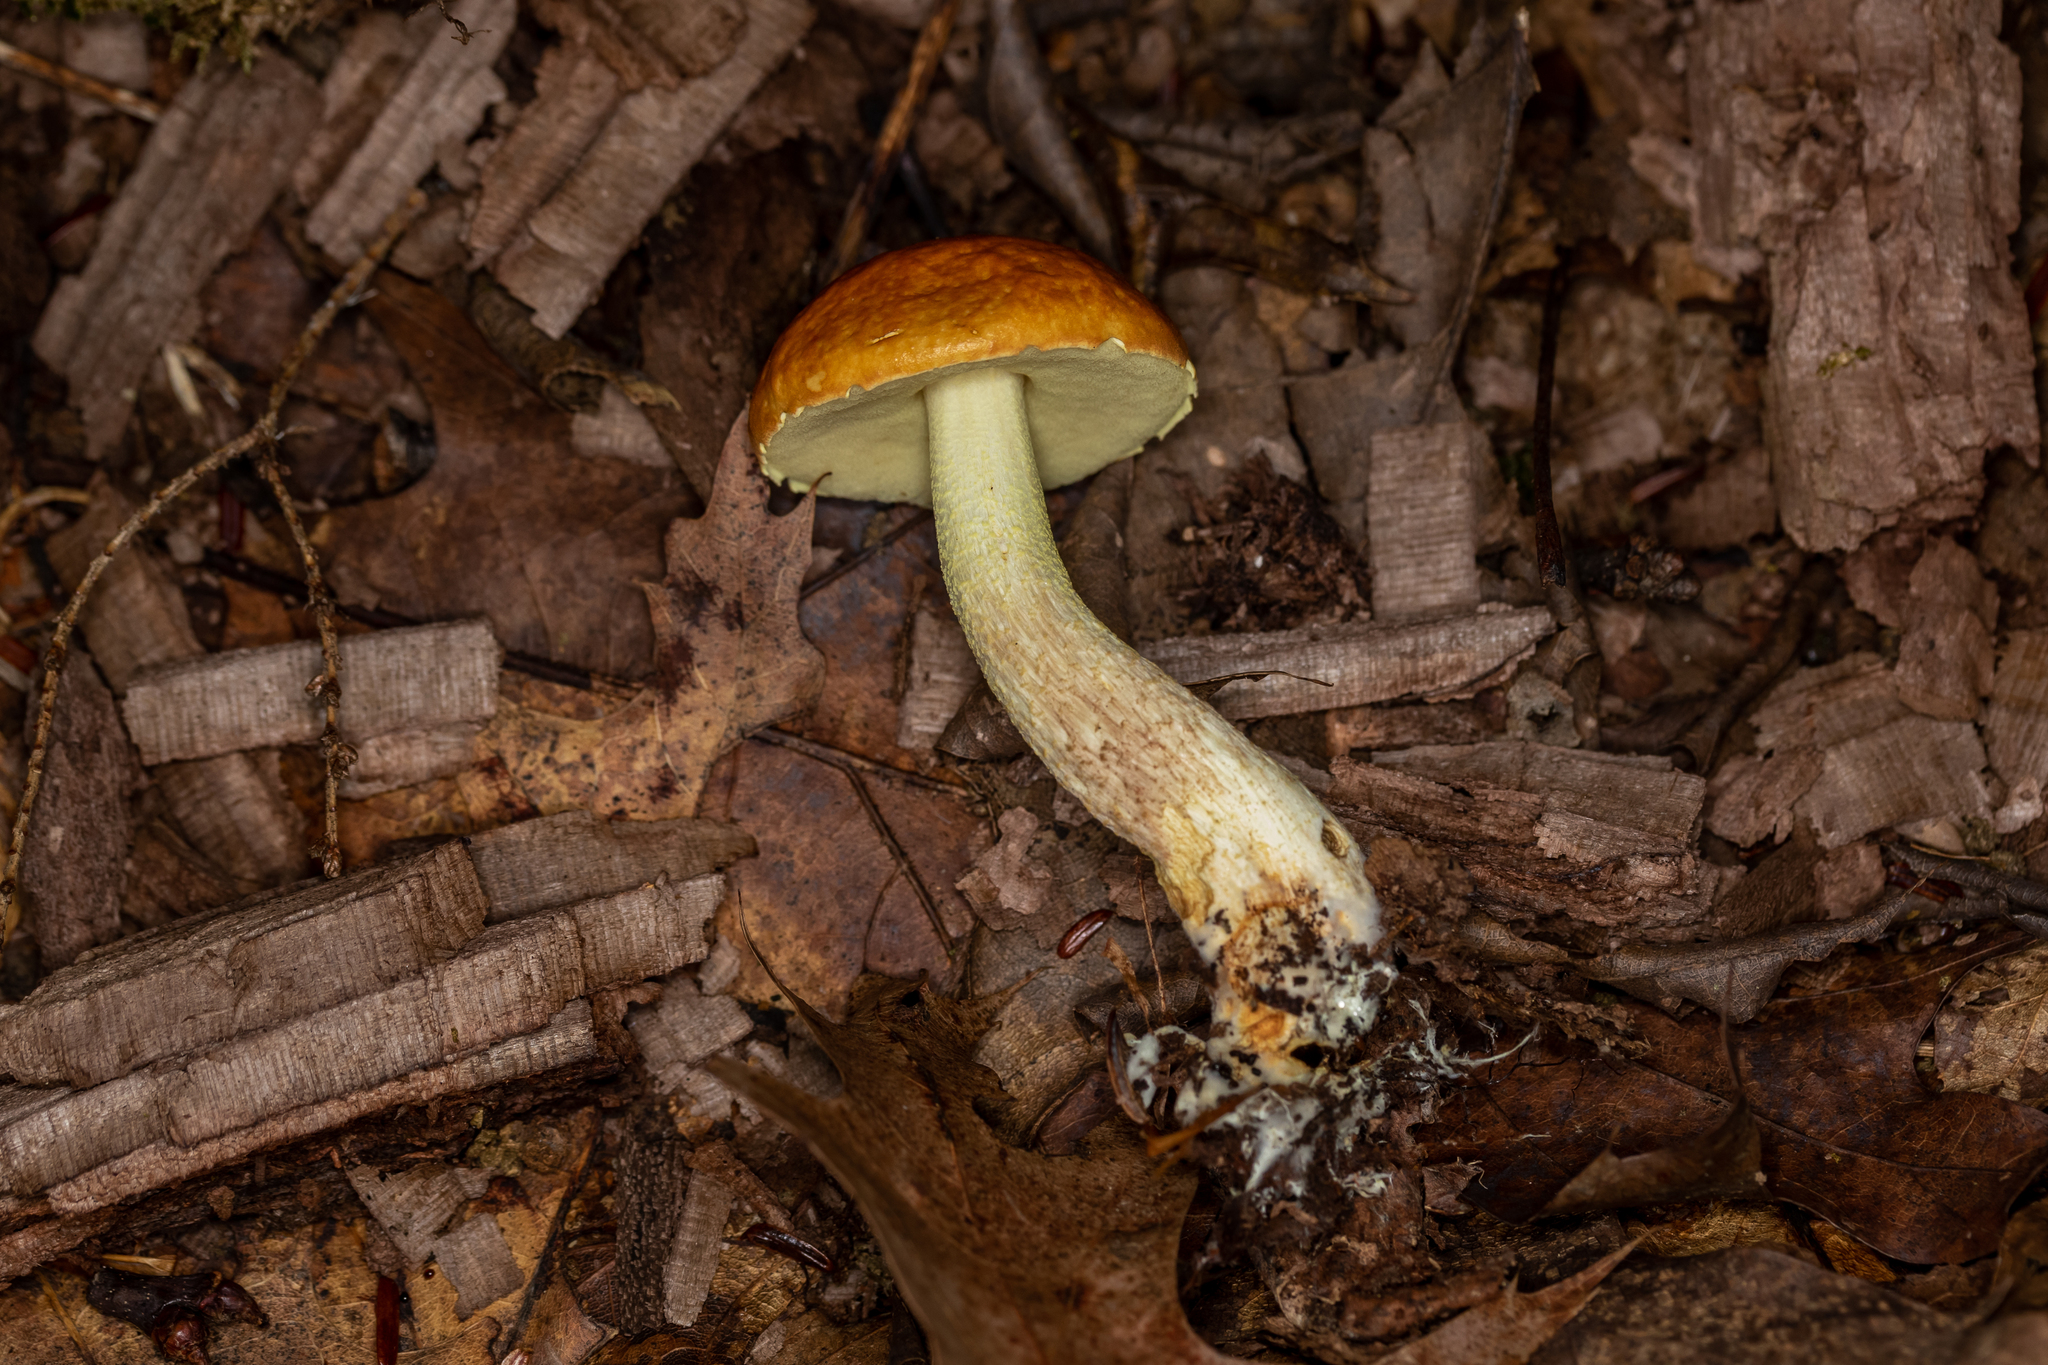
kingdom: Fungi
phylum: Basidiomycota
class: Agaricomycetes
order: Boletales
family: Boletaceae
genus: Leccinum
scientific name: Leccinum longicurvipes
